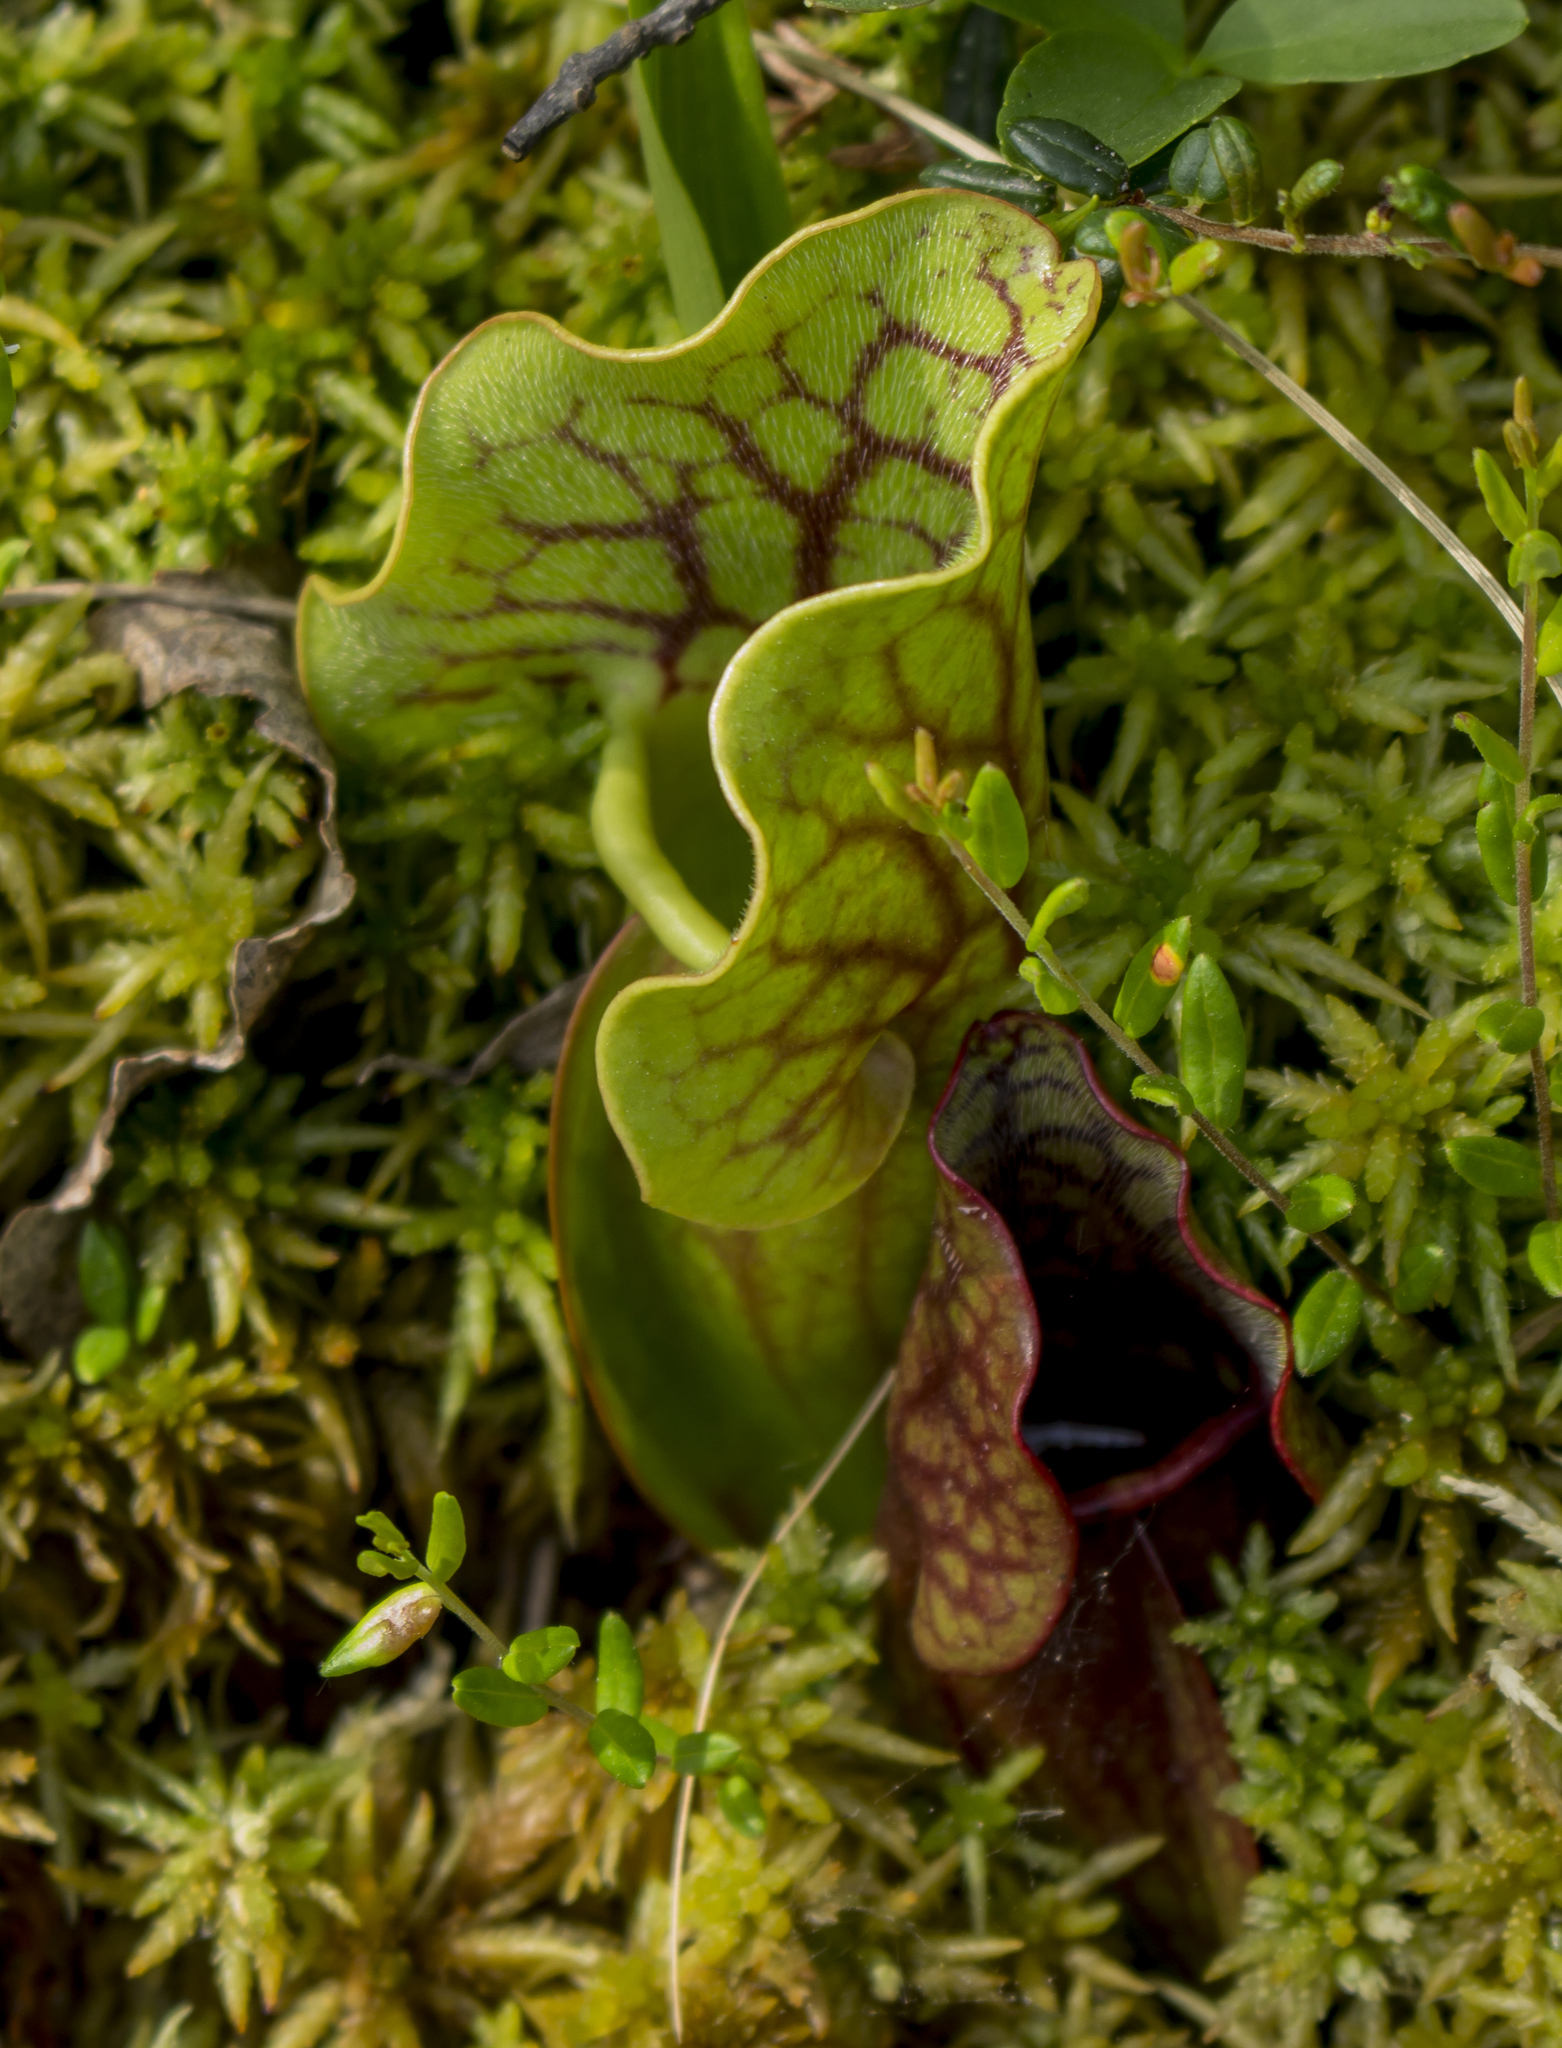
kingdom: Plantae
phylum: Tracheophyta
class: Magnoliopsida
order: Ericales
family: Sarraceniaceae
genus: Sarracenia
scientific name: Sarracenia purpurea
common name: Pitcherplant
